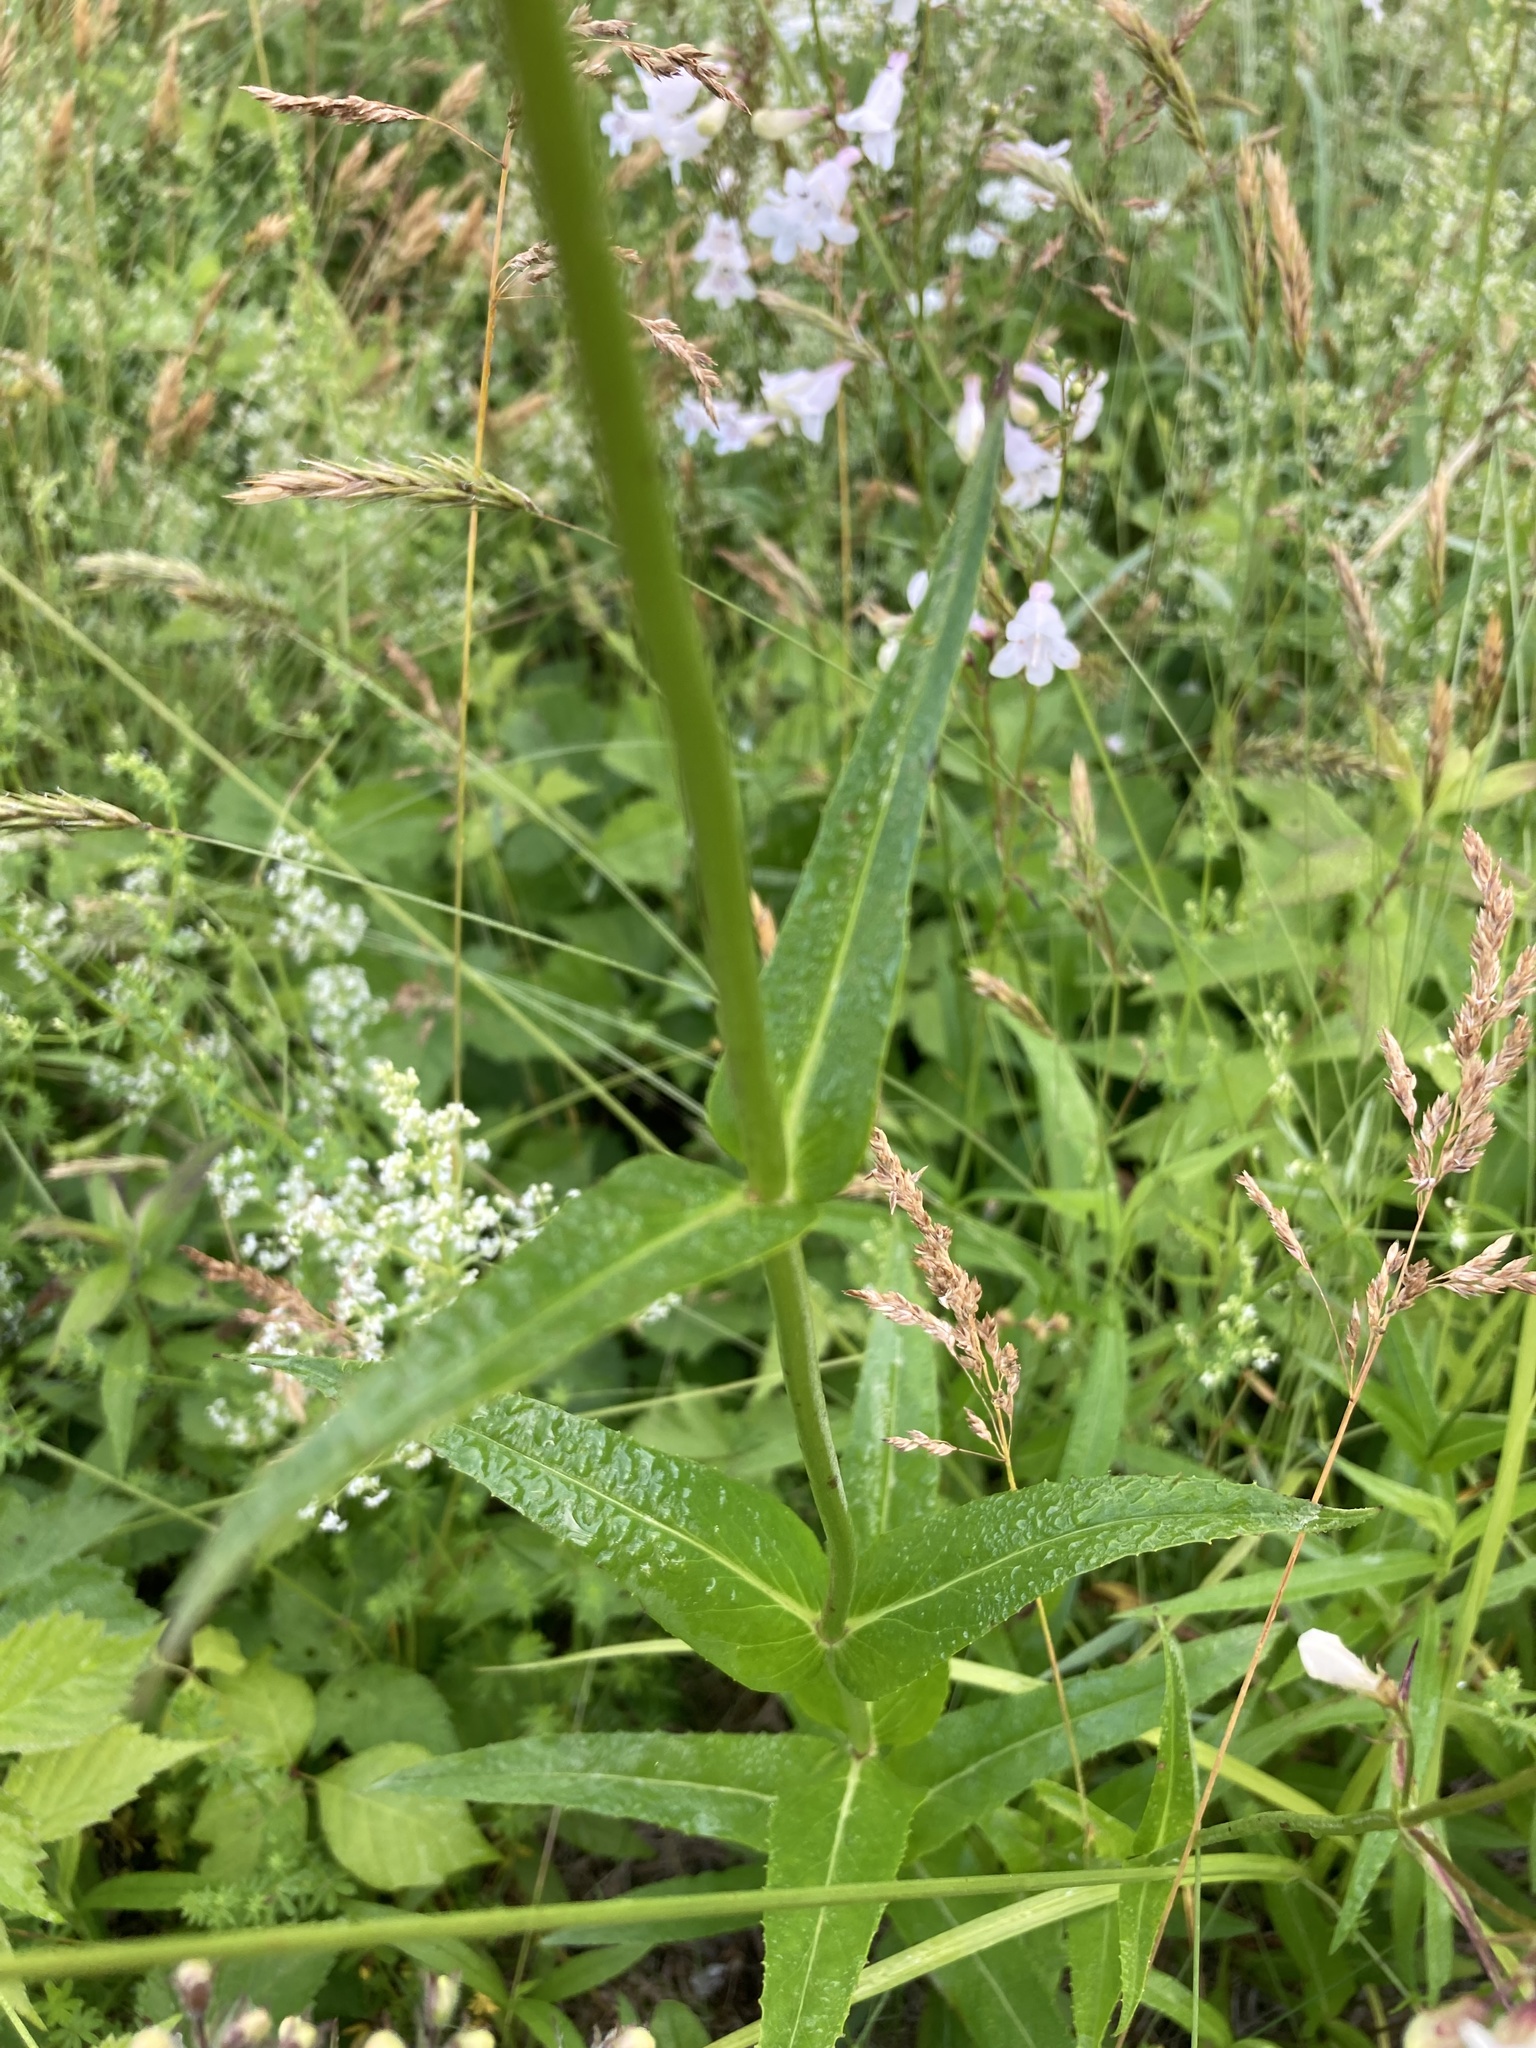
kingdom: Plantae
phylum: Tracheophyta
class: Magnoliopsida
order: Lamiales
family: Plantaginaceae
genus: Penstemon
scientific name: Penstemon digitalis
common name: Foxglove beardtongue
